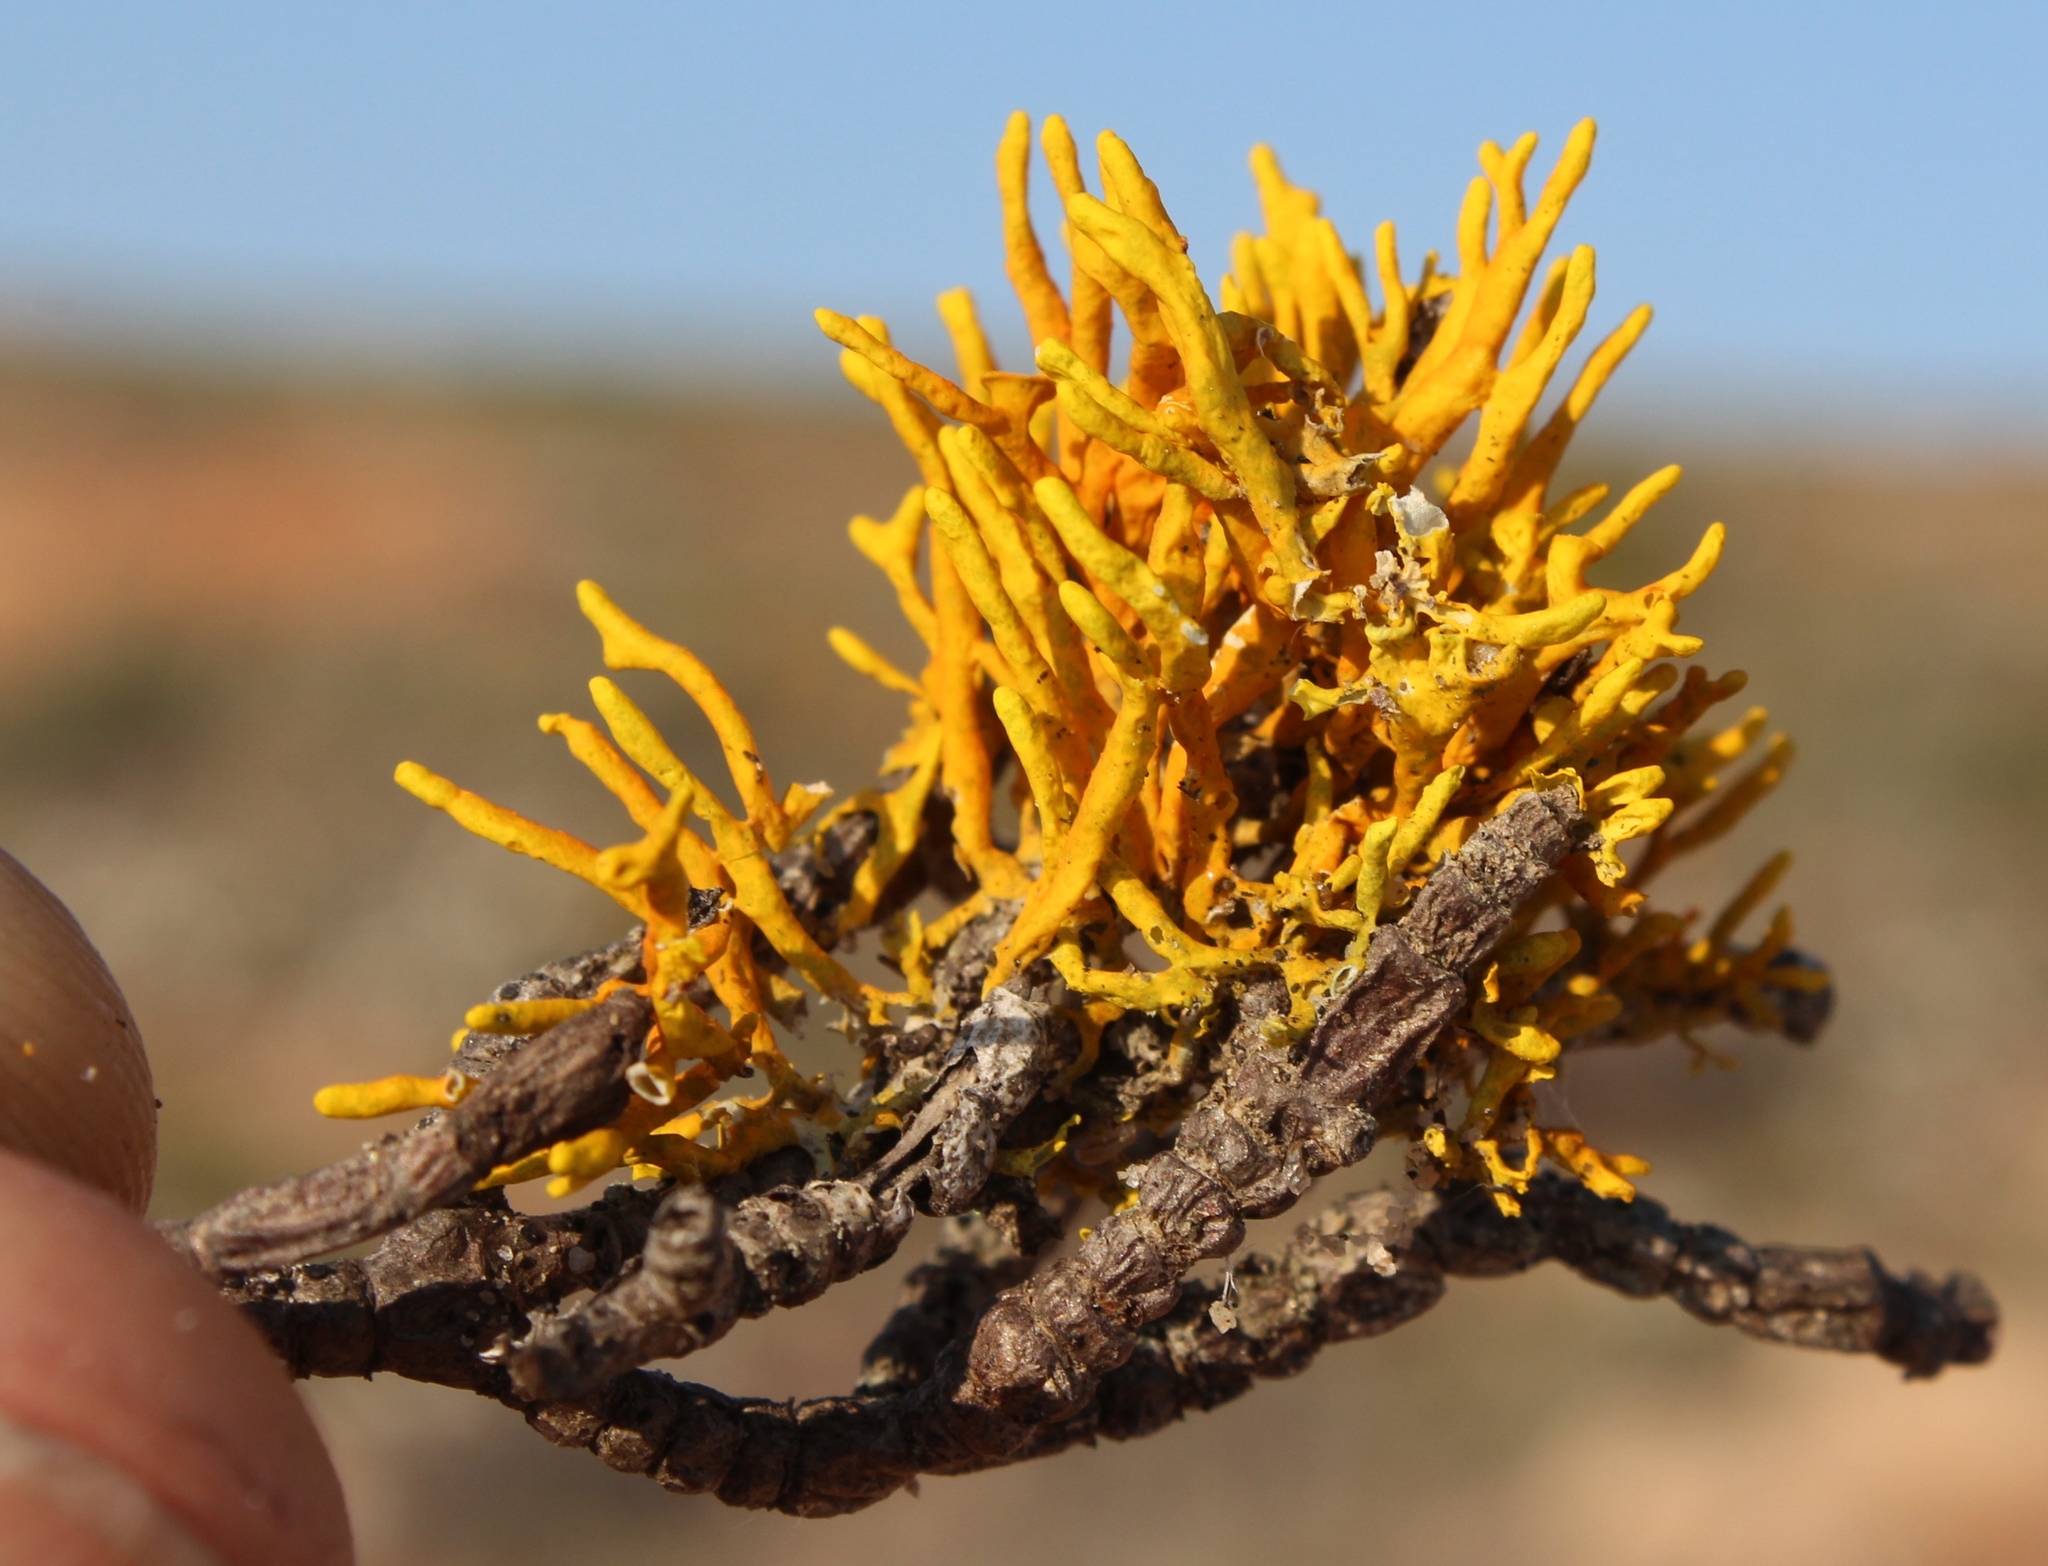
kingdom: Fungi
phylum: Ascomycota
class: Lecanoromycetes
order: Teloschistales
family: Teloschistaceae
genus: Dufourea
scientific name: Dufourea flammea
